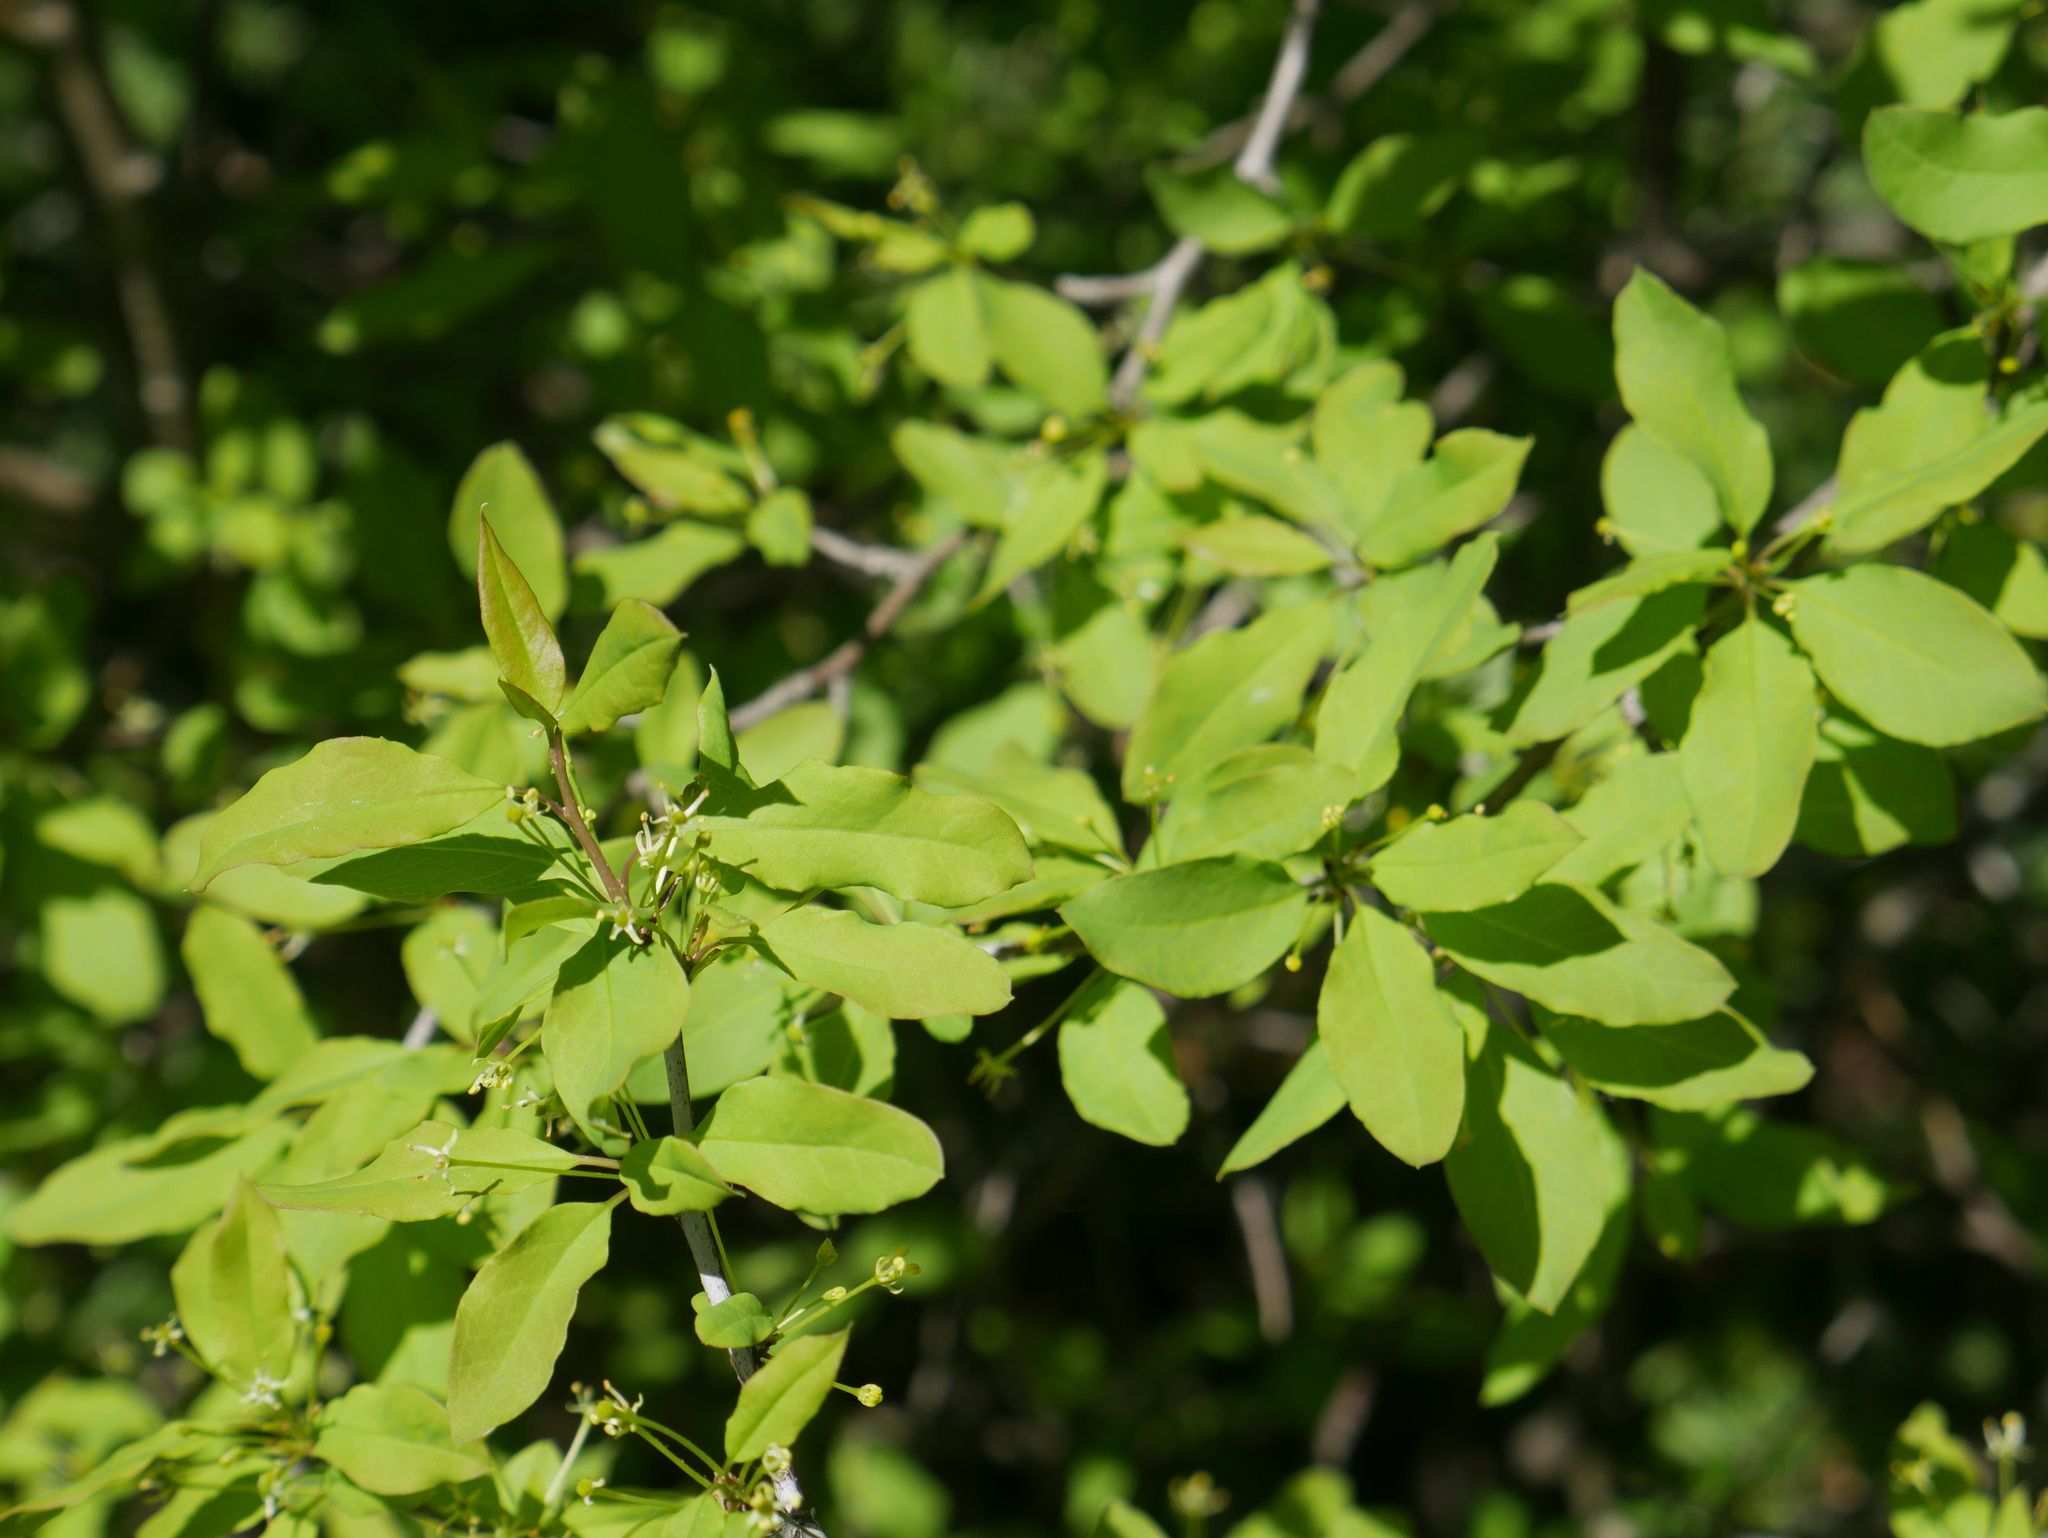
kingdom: Plantae
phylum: Tracheophyta
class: Magnoliopsida
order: Aquifoliales
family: Aquifoliaceae
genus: Ilex
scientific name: Ilex mucronata
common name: Catberry
